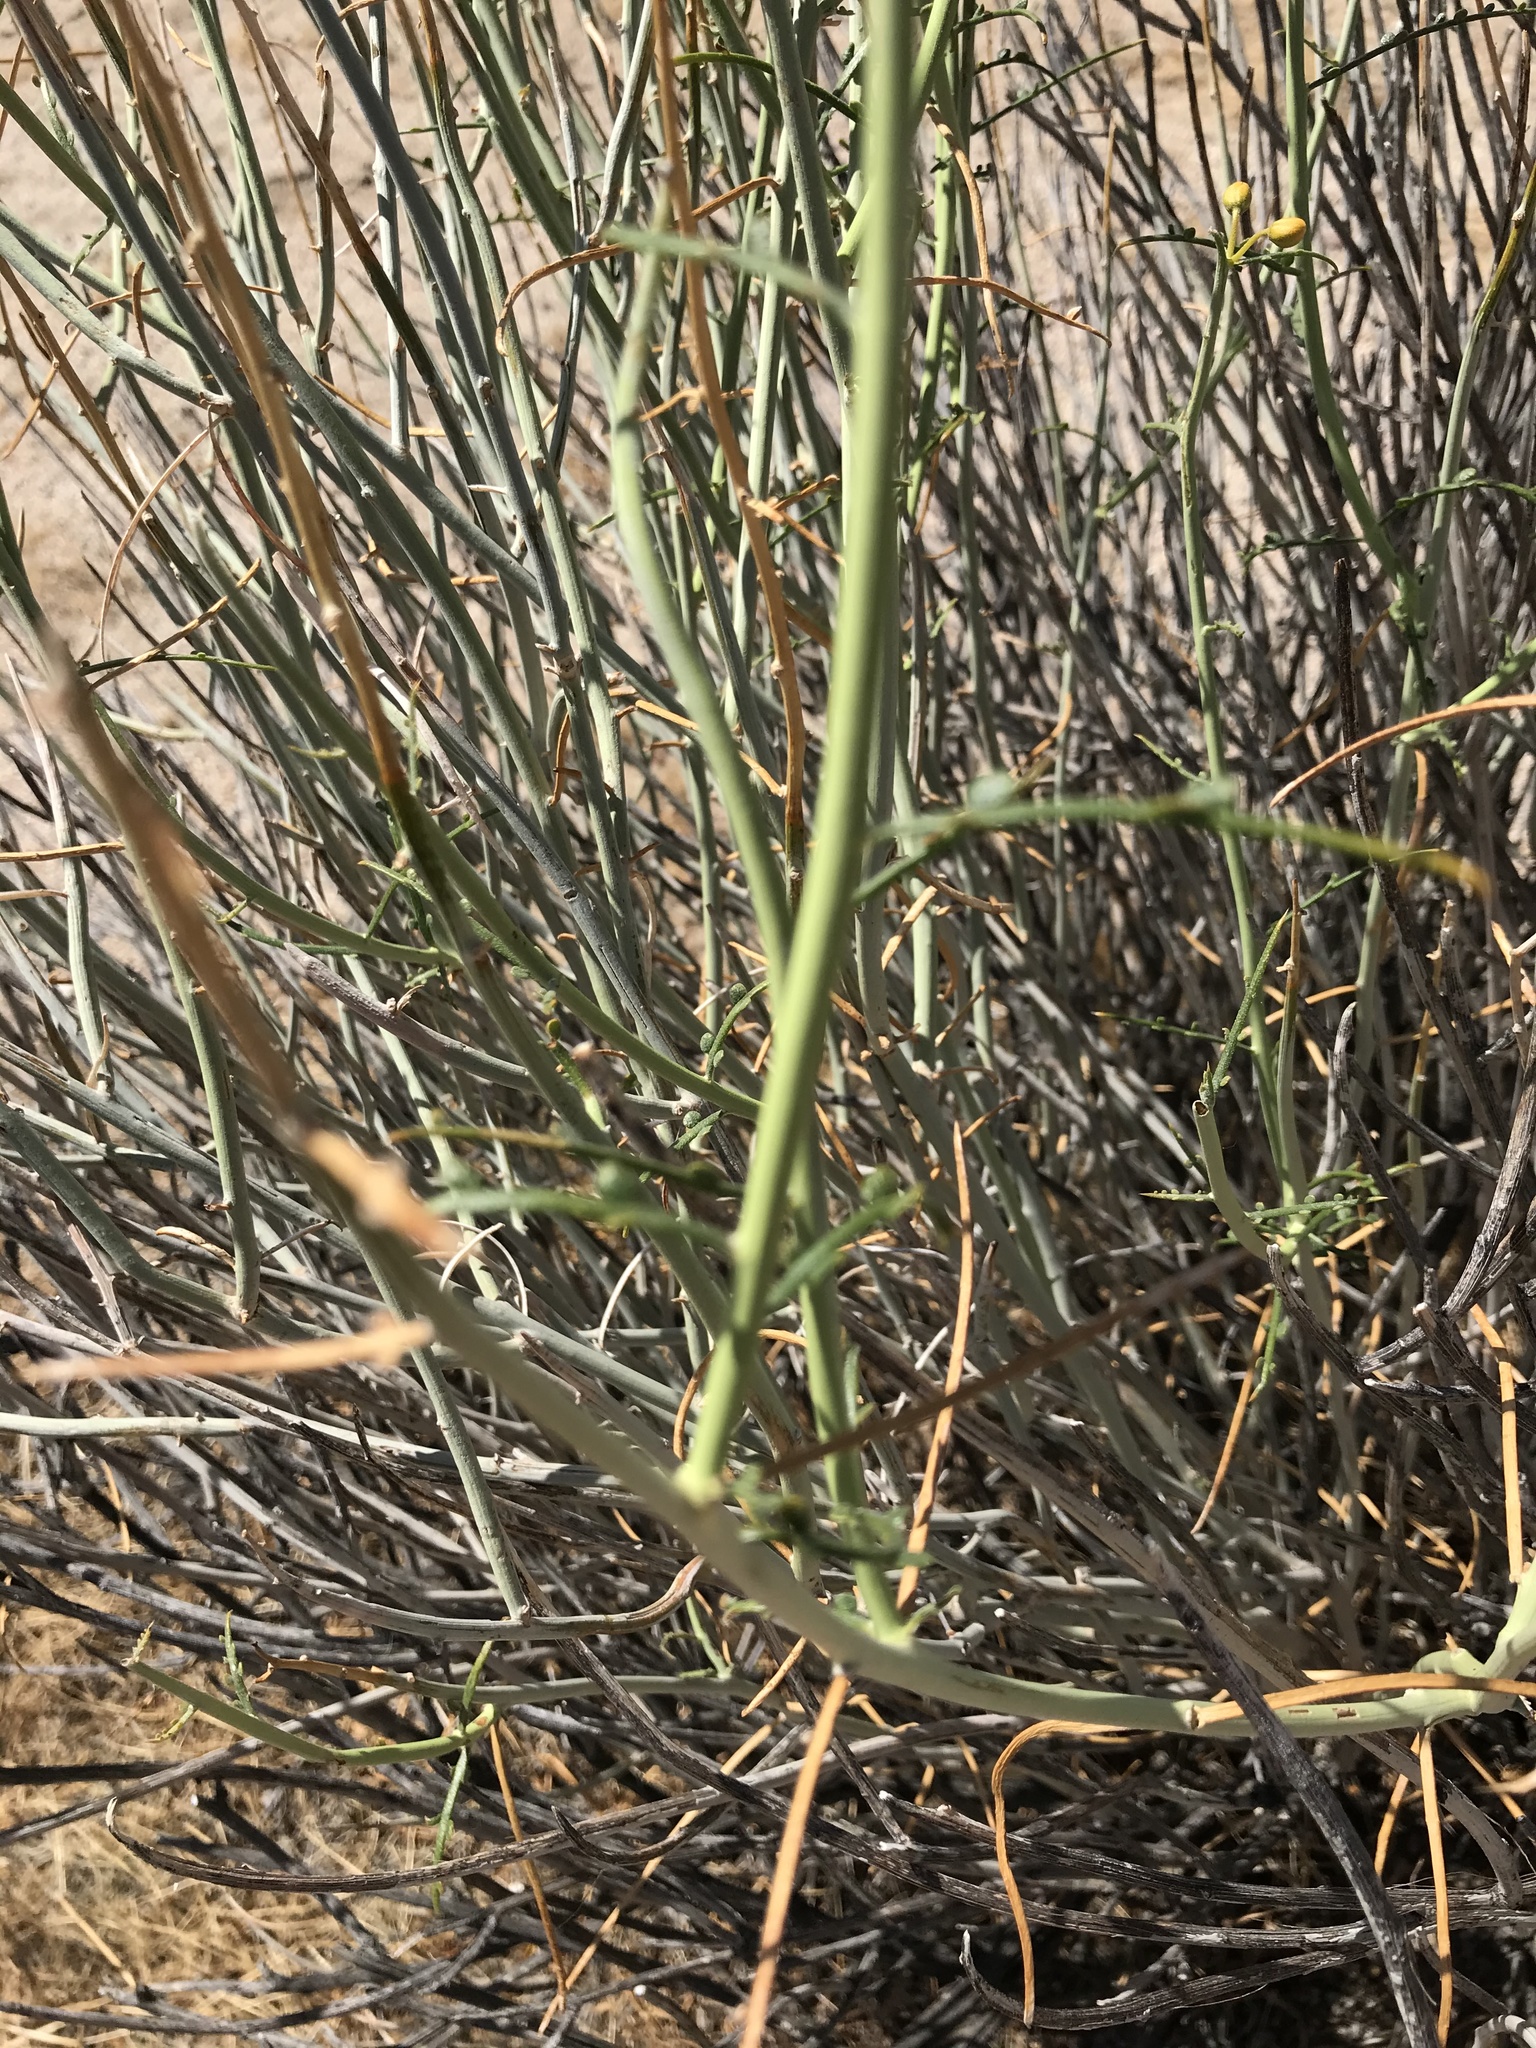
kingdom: Plantae
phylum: Tracheophyta
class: Magnoliopsida
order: Fabales
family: Fabaceae
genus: Senna
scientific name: Senna armata
